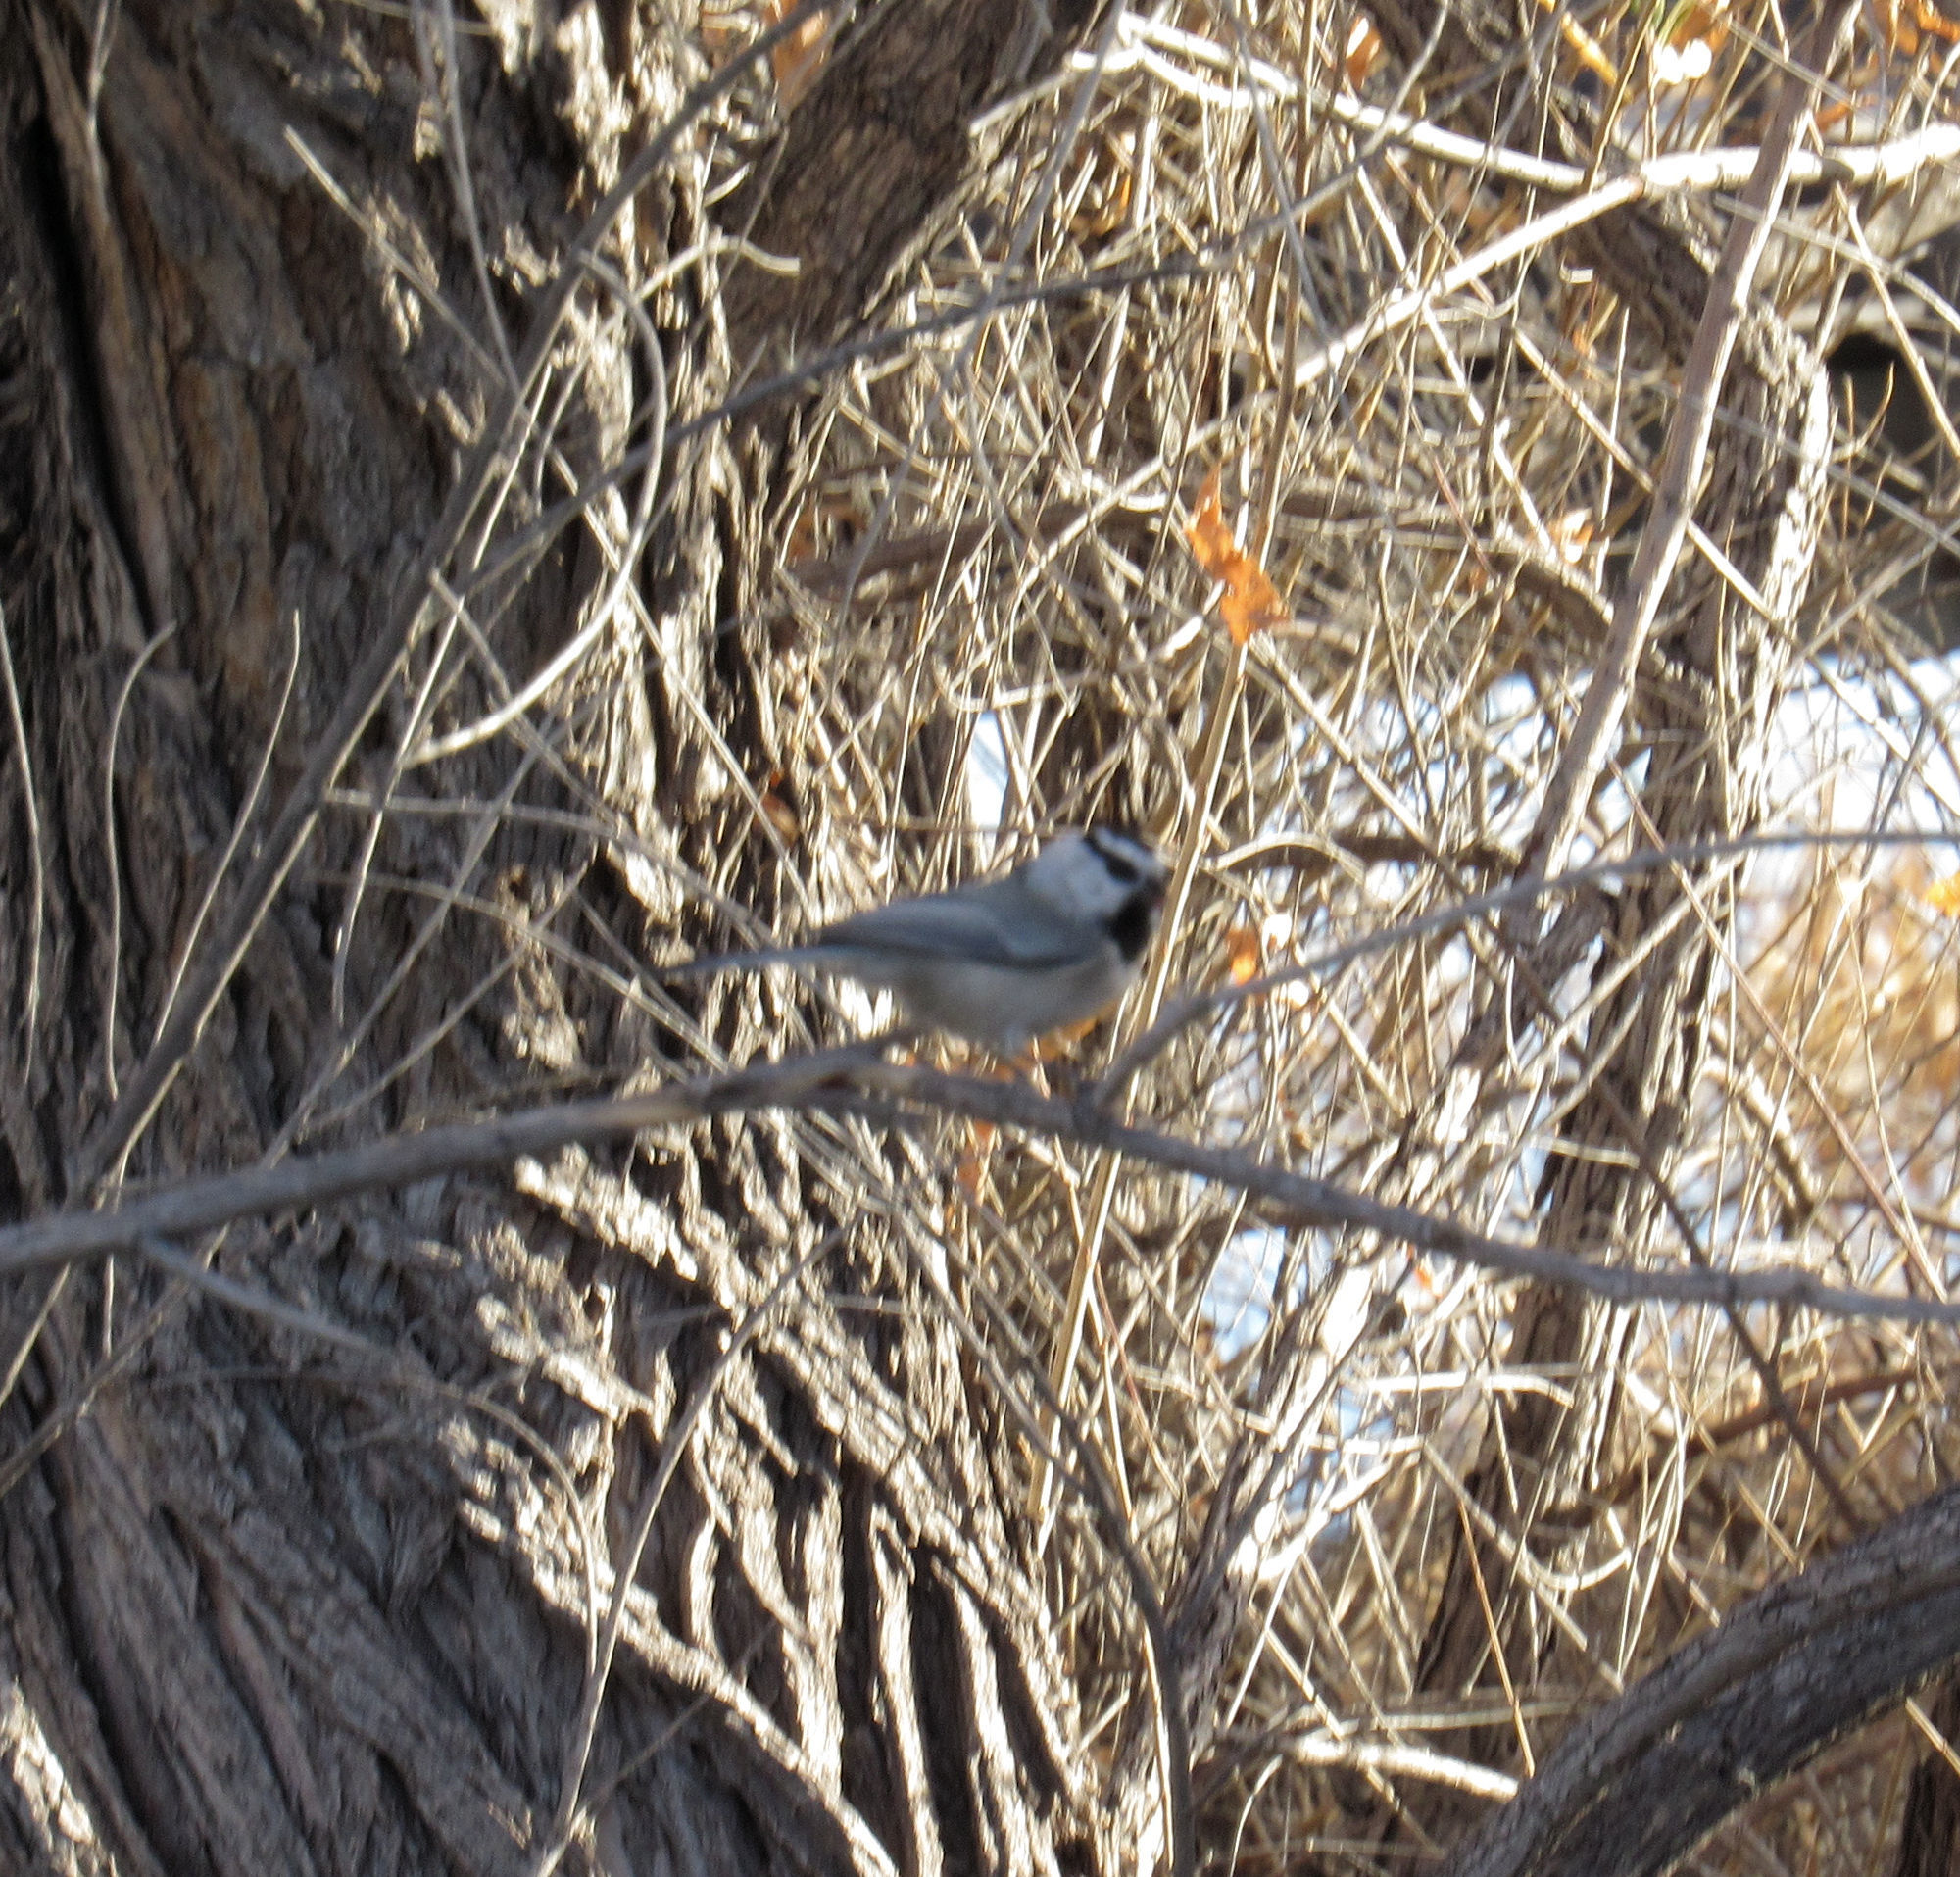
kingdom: Animalia
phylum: Chordata
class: Aves
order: Passeriformes
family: Paridae
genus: Poecile
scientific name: Poecile gambeli
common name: Mountain chickadee
